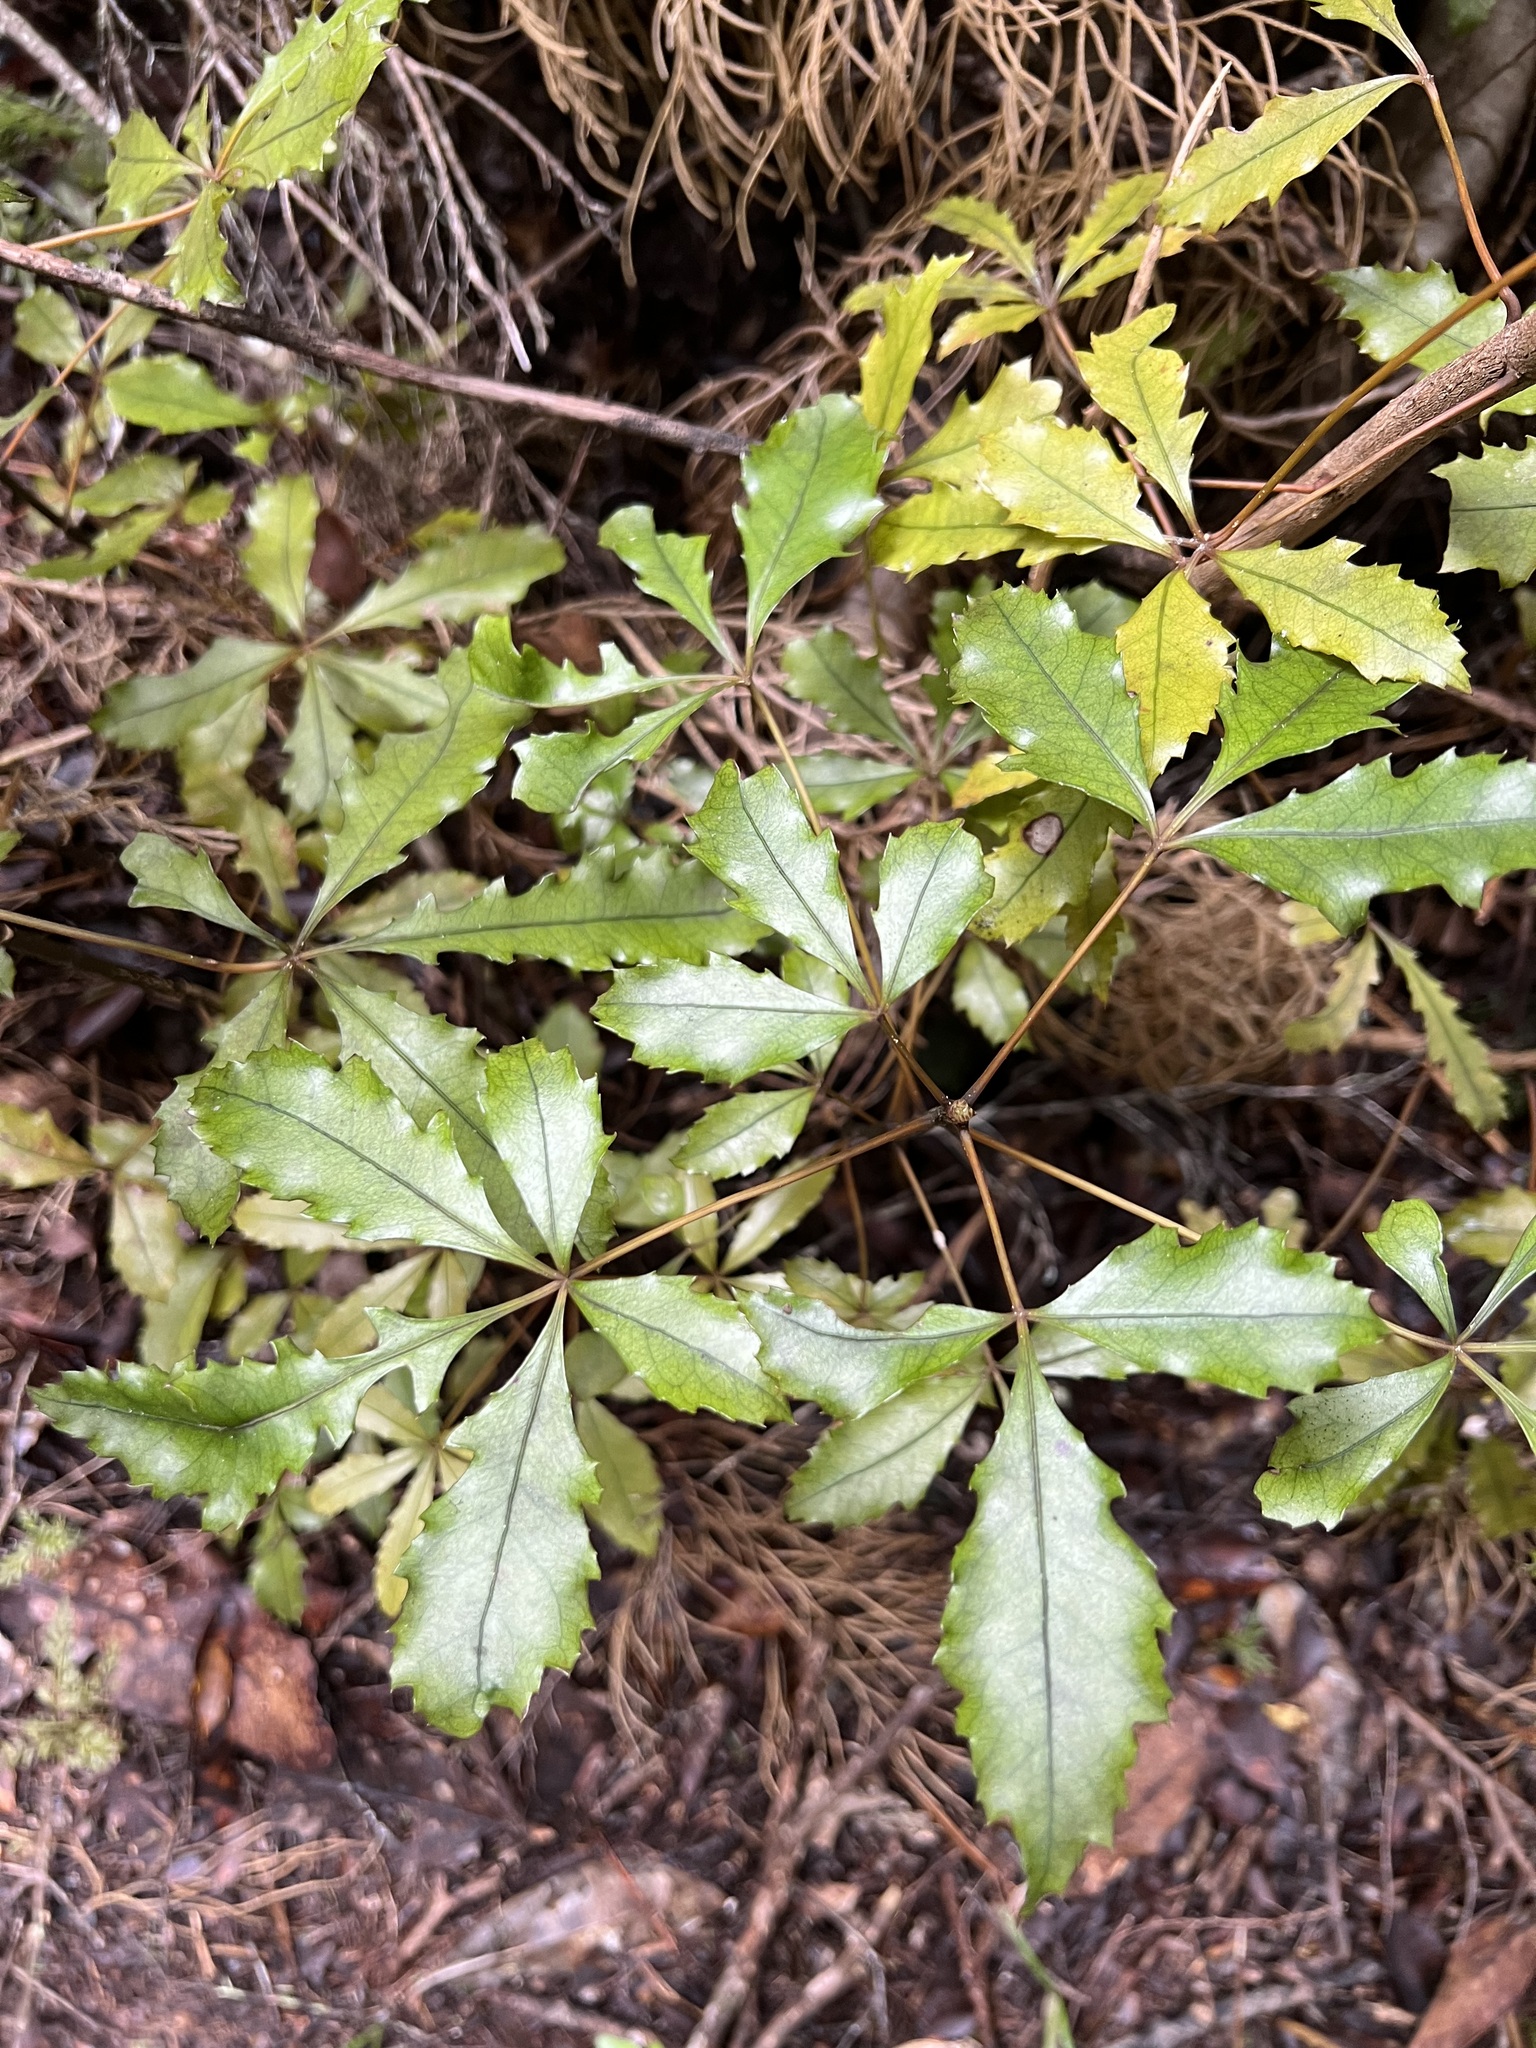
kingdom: Plantae
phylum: Tracheophyta
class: Magnoliopsida
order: Apiales
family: Araliaceae
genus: Pseudopanax
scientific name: Pseudopanax discolor
